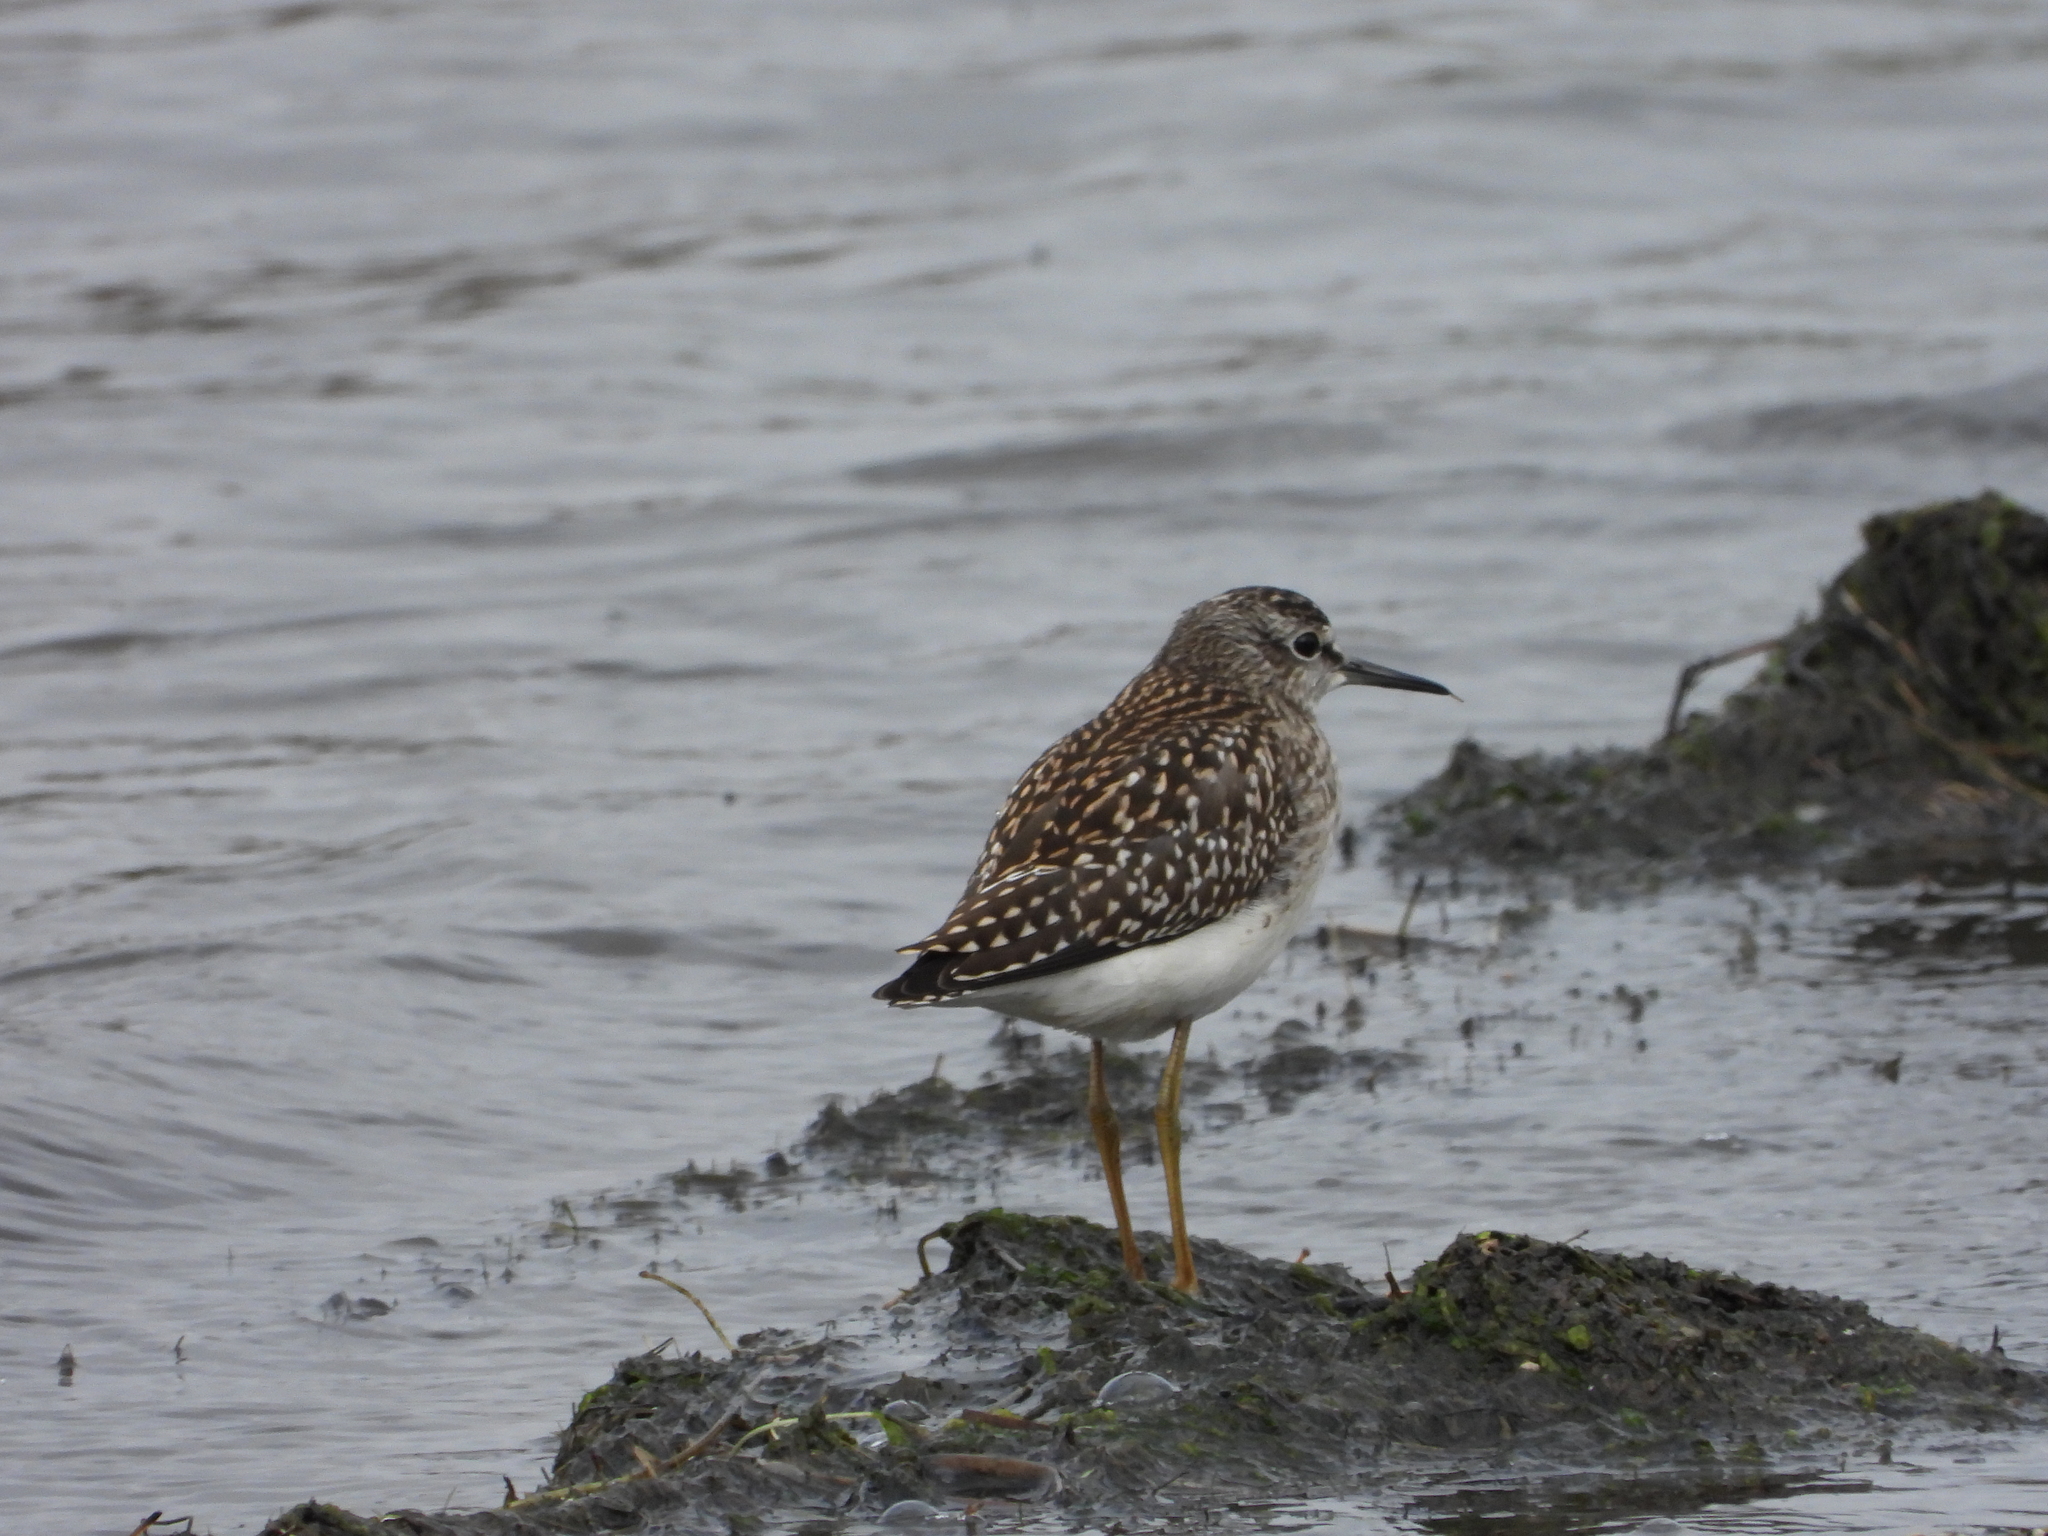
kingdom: Animalia
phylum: Chordata
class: Aves
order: Charadriiformes
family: Scolopacidae
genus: Tringa
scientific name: Tringa glareola
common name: Wood sandpiper
